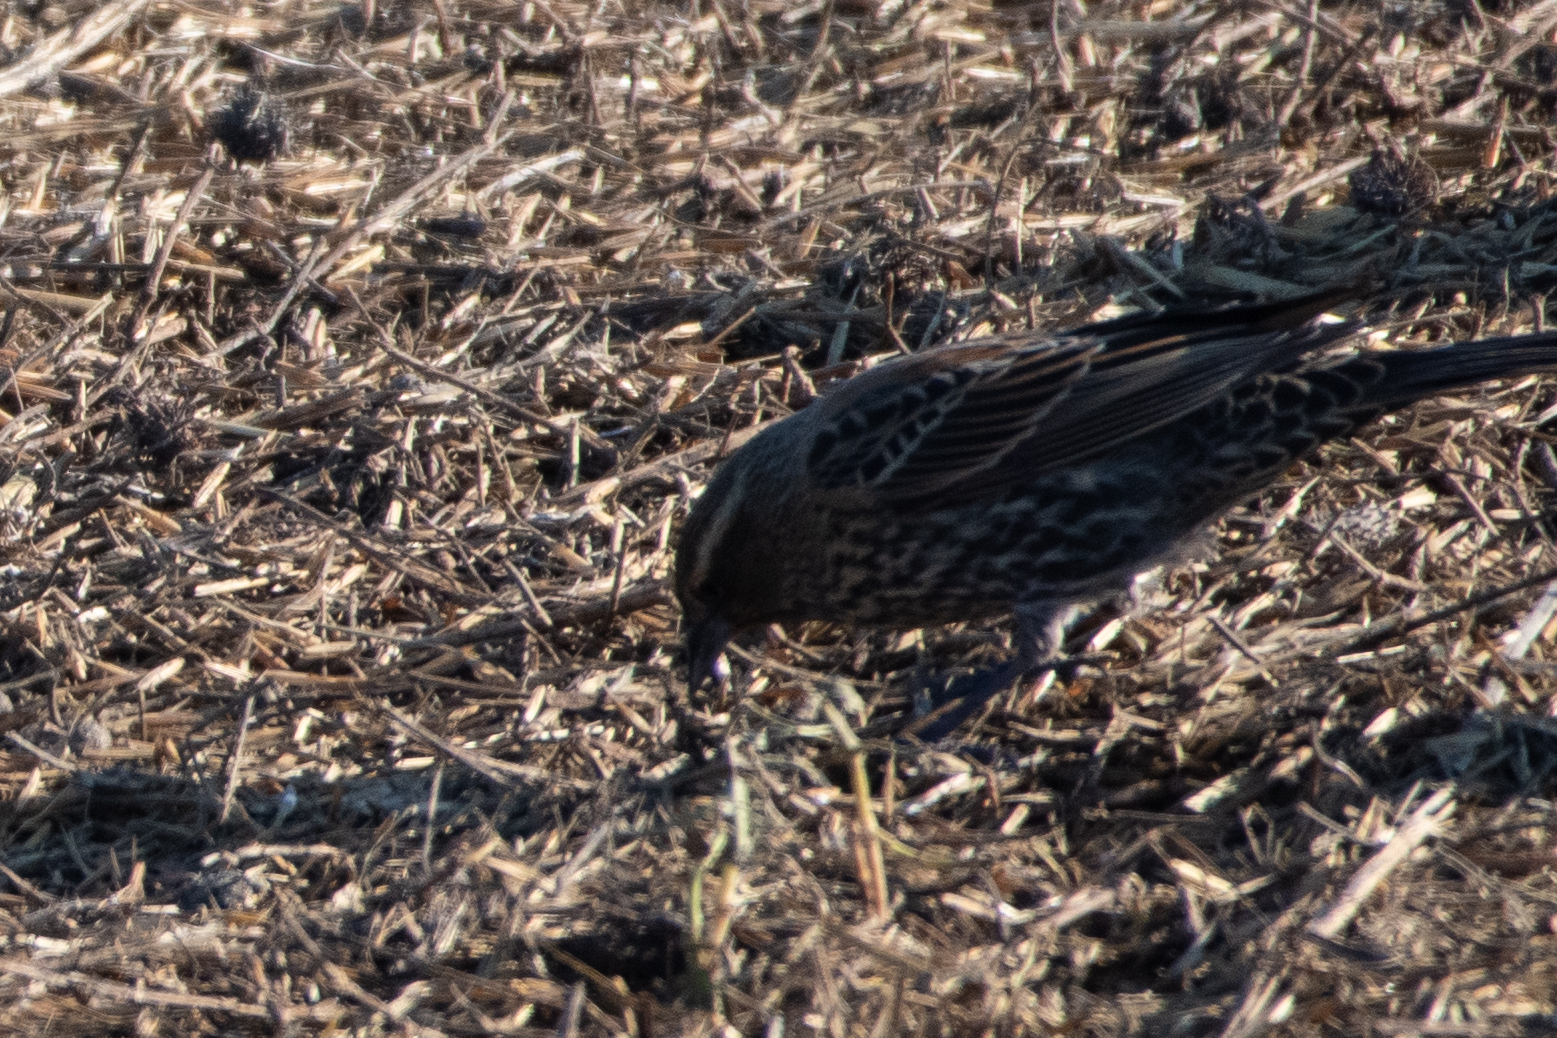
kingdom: Animalia
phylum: Chordata
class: Aves
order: Passeriformes
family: Icteridae
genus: Agelaius
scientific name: Agelaius phoeniceus
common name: Red-winged blackbird
